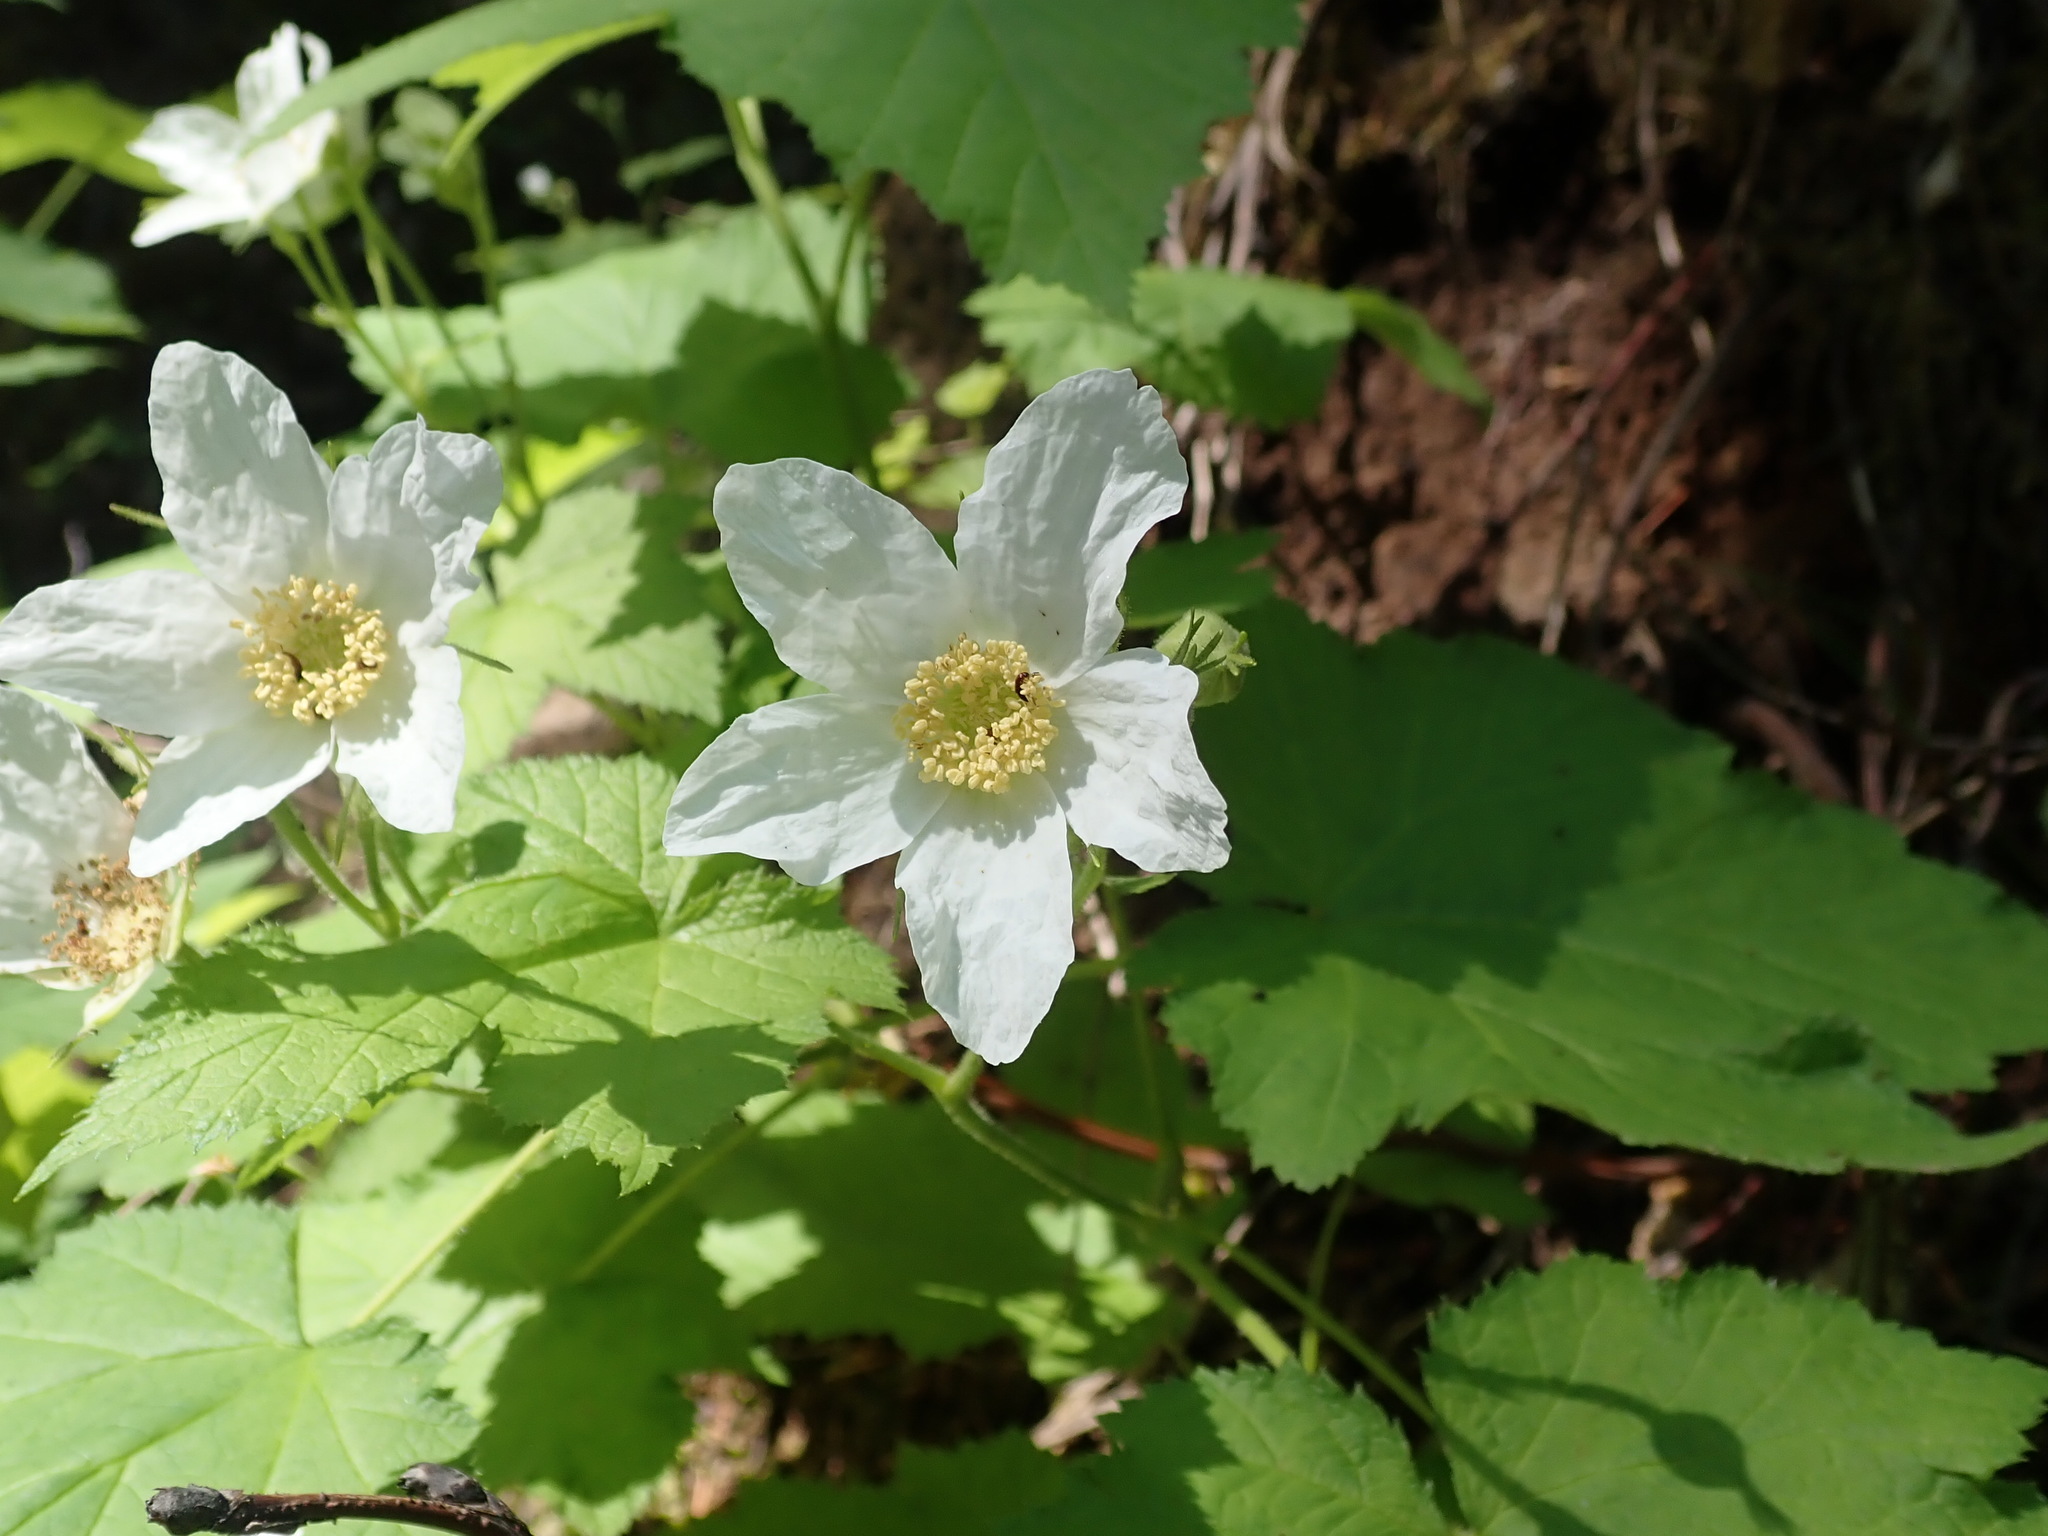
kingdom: Plantae
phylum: Tracheophyta
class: Magnoliopsida
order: Rosales
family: Rosaceae
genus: Rubus
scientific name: Rubus parviflorus
